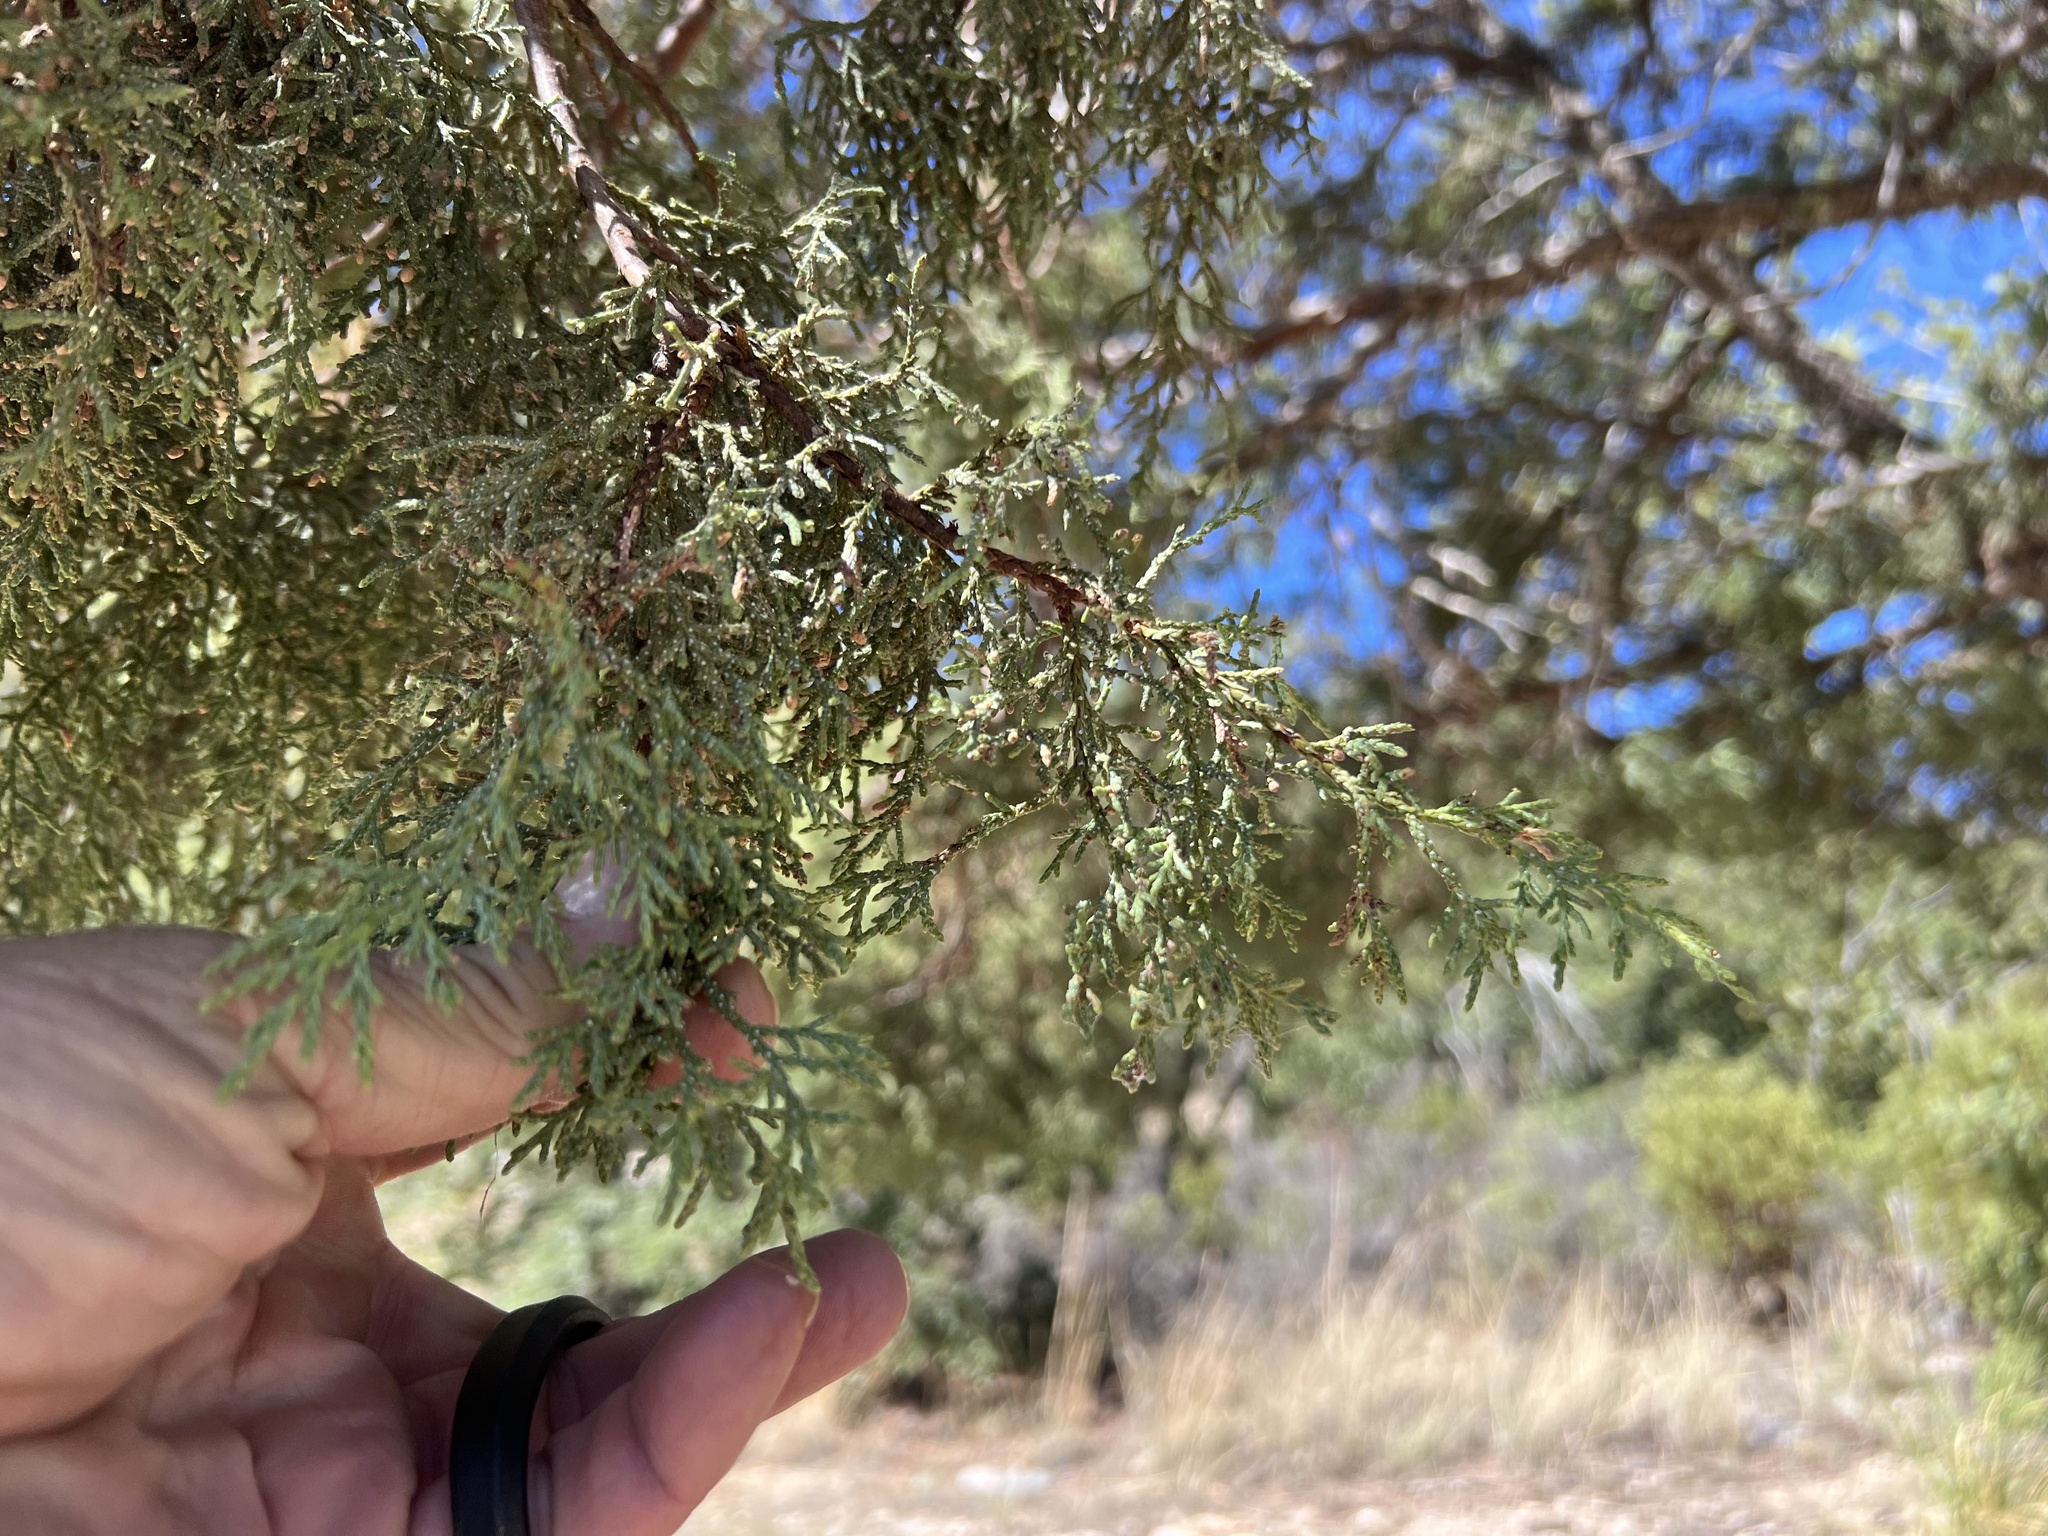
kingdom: Plantae
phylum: Tracheophyta
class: Pinopsida
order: Pinales
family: Cupressaceae
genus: Juniperus
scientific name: Juniperus deppeana
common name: Alligator juniper
